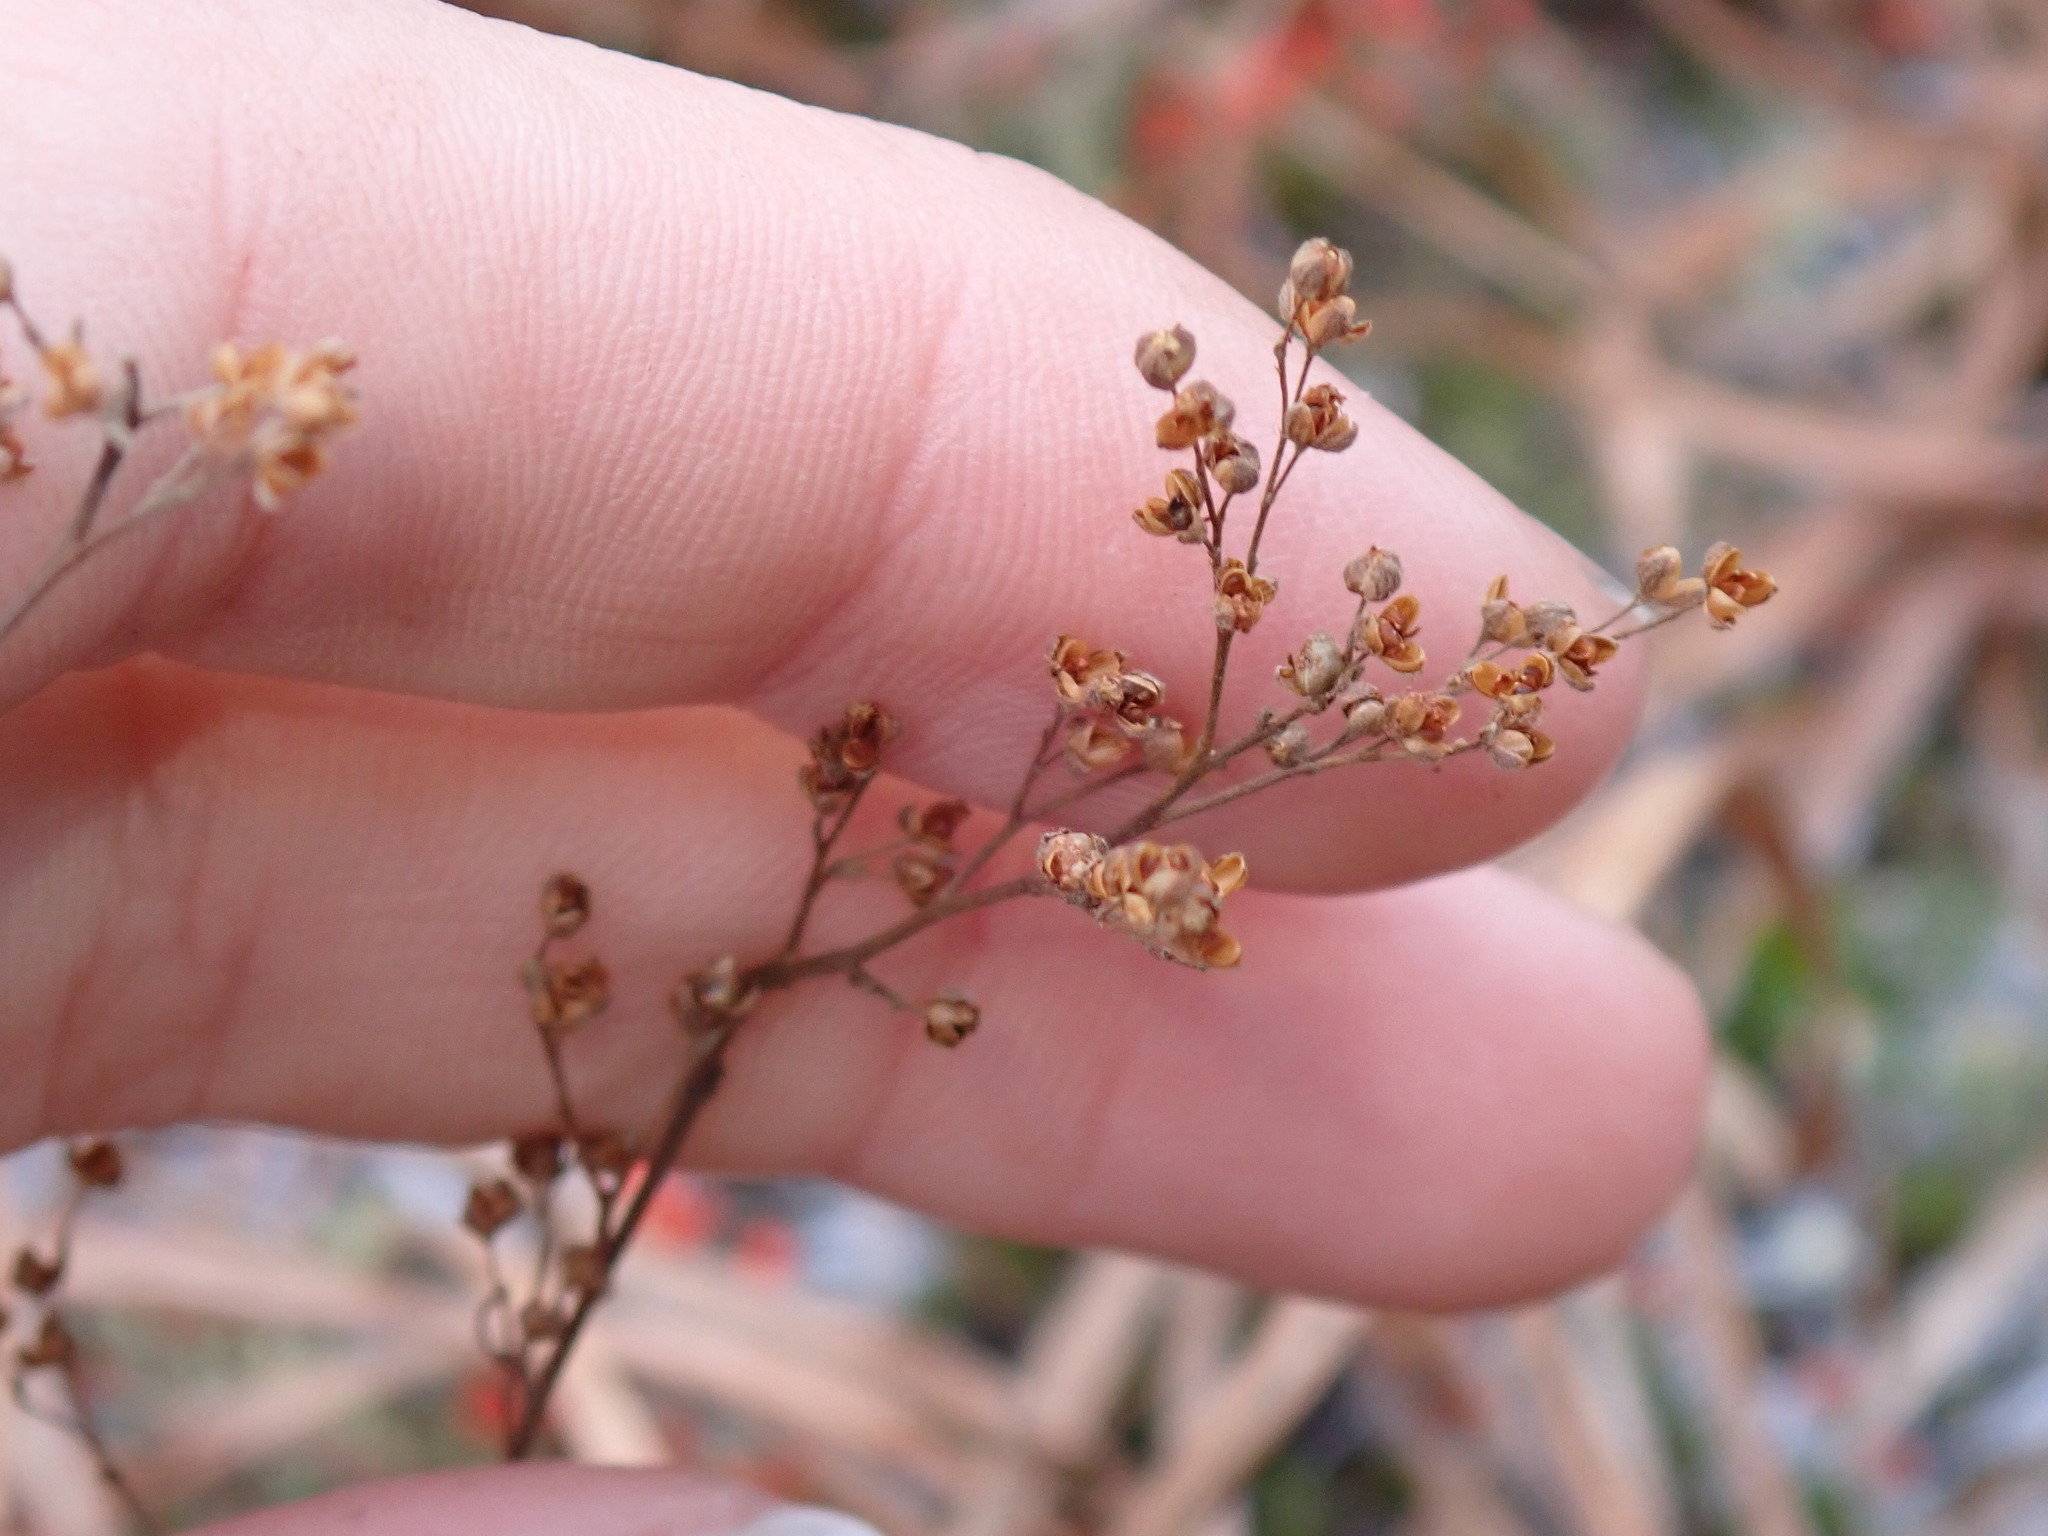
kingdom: Plantae
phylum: Tracheophyta
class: Magnoliopsida
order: Malvales
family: Cistaceae
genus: Lechea
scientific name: Lechea
